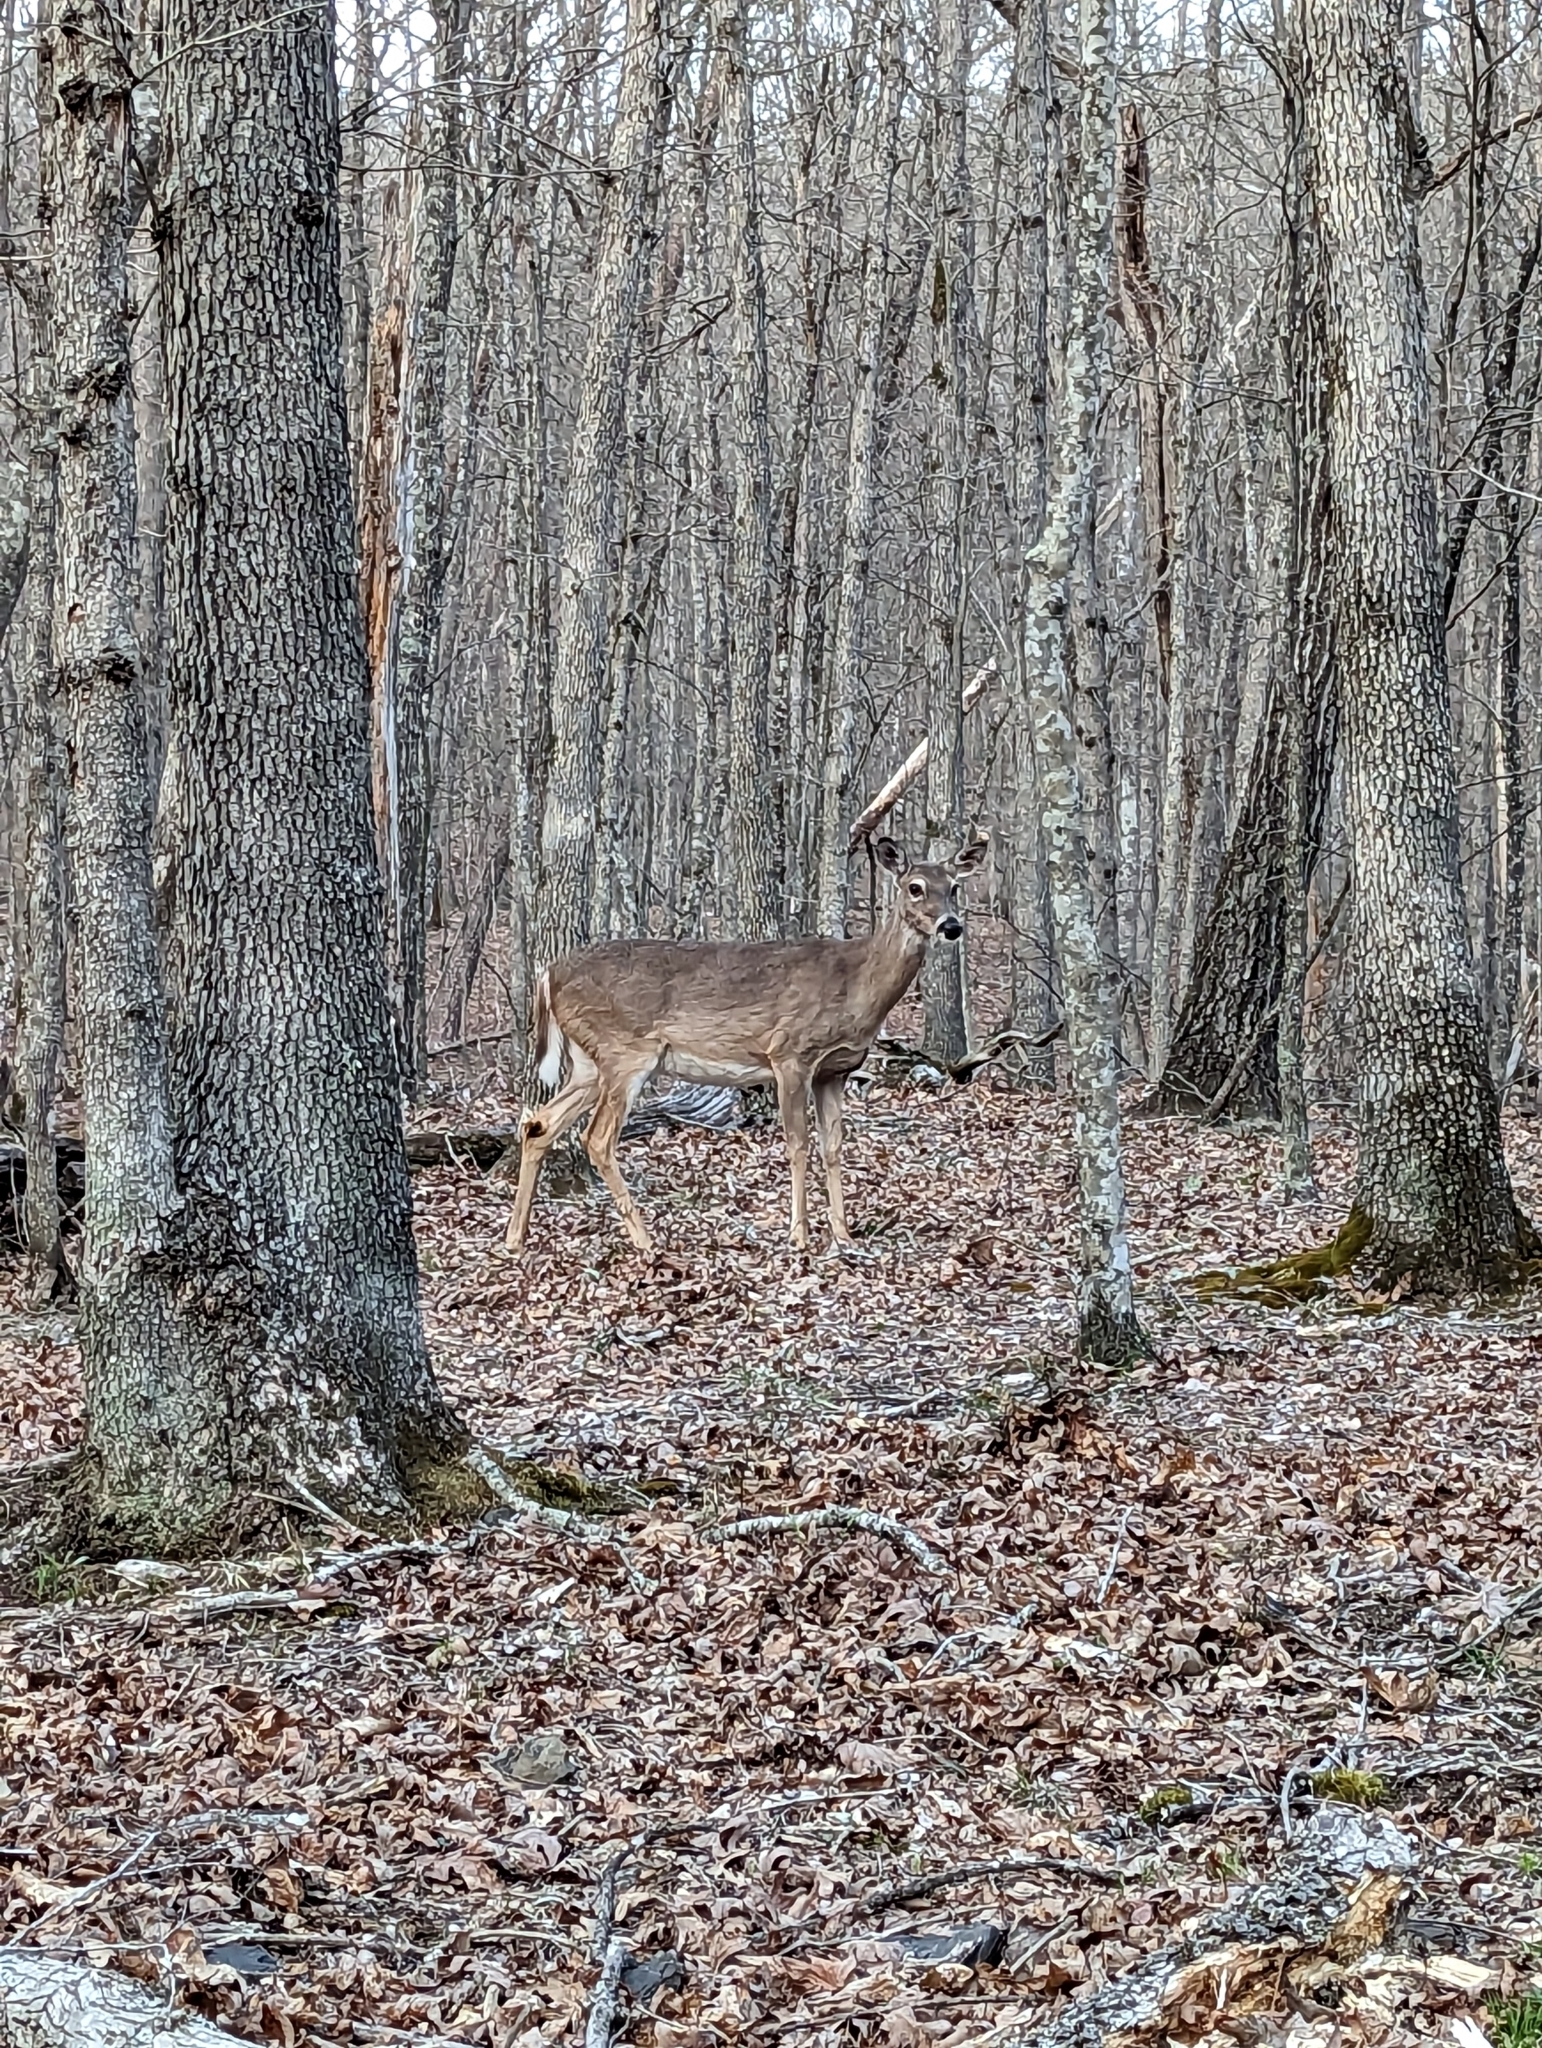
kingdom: Animalia
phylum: Chordata
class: Mammalia
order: Artiodactyla
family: Cervidae
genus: Odocoileus
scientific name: Odocoileus virginianus
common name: White-tailed deer
